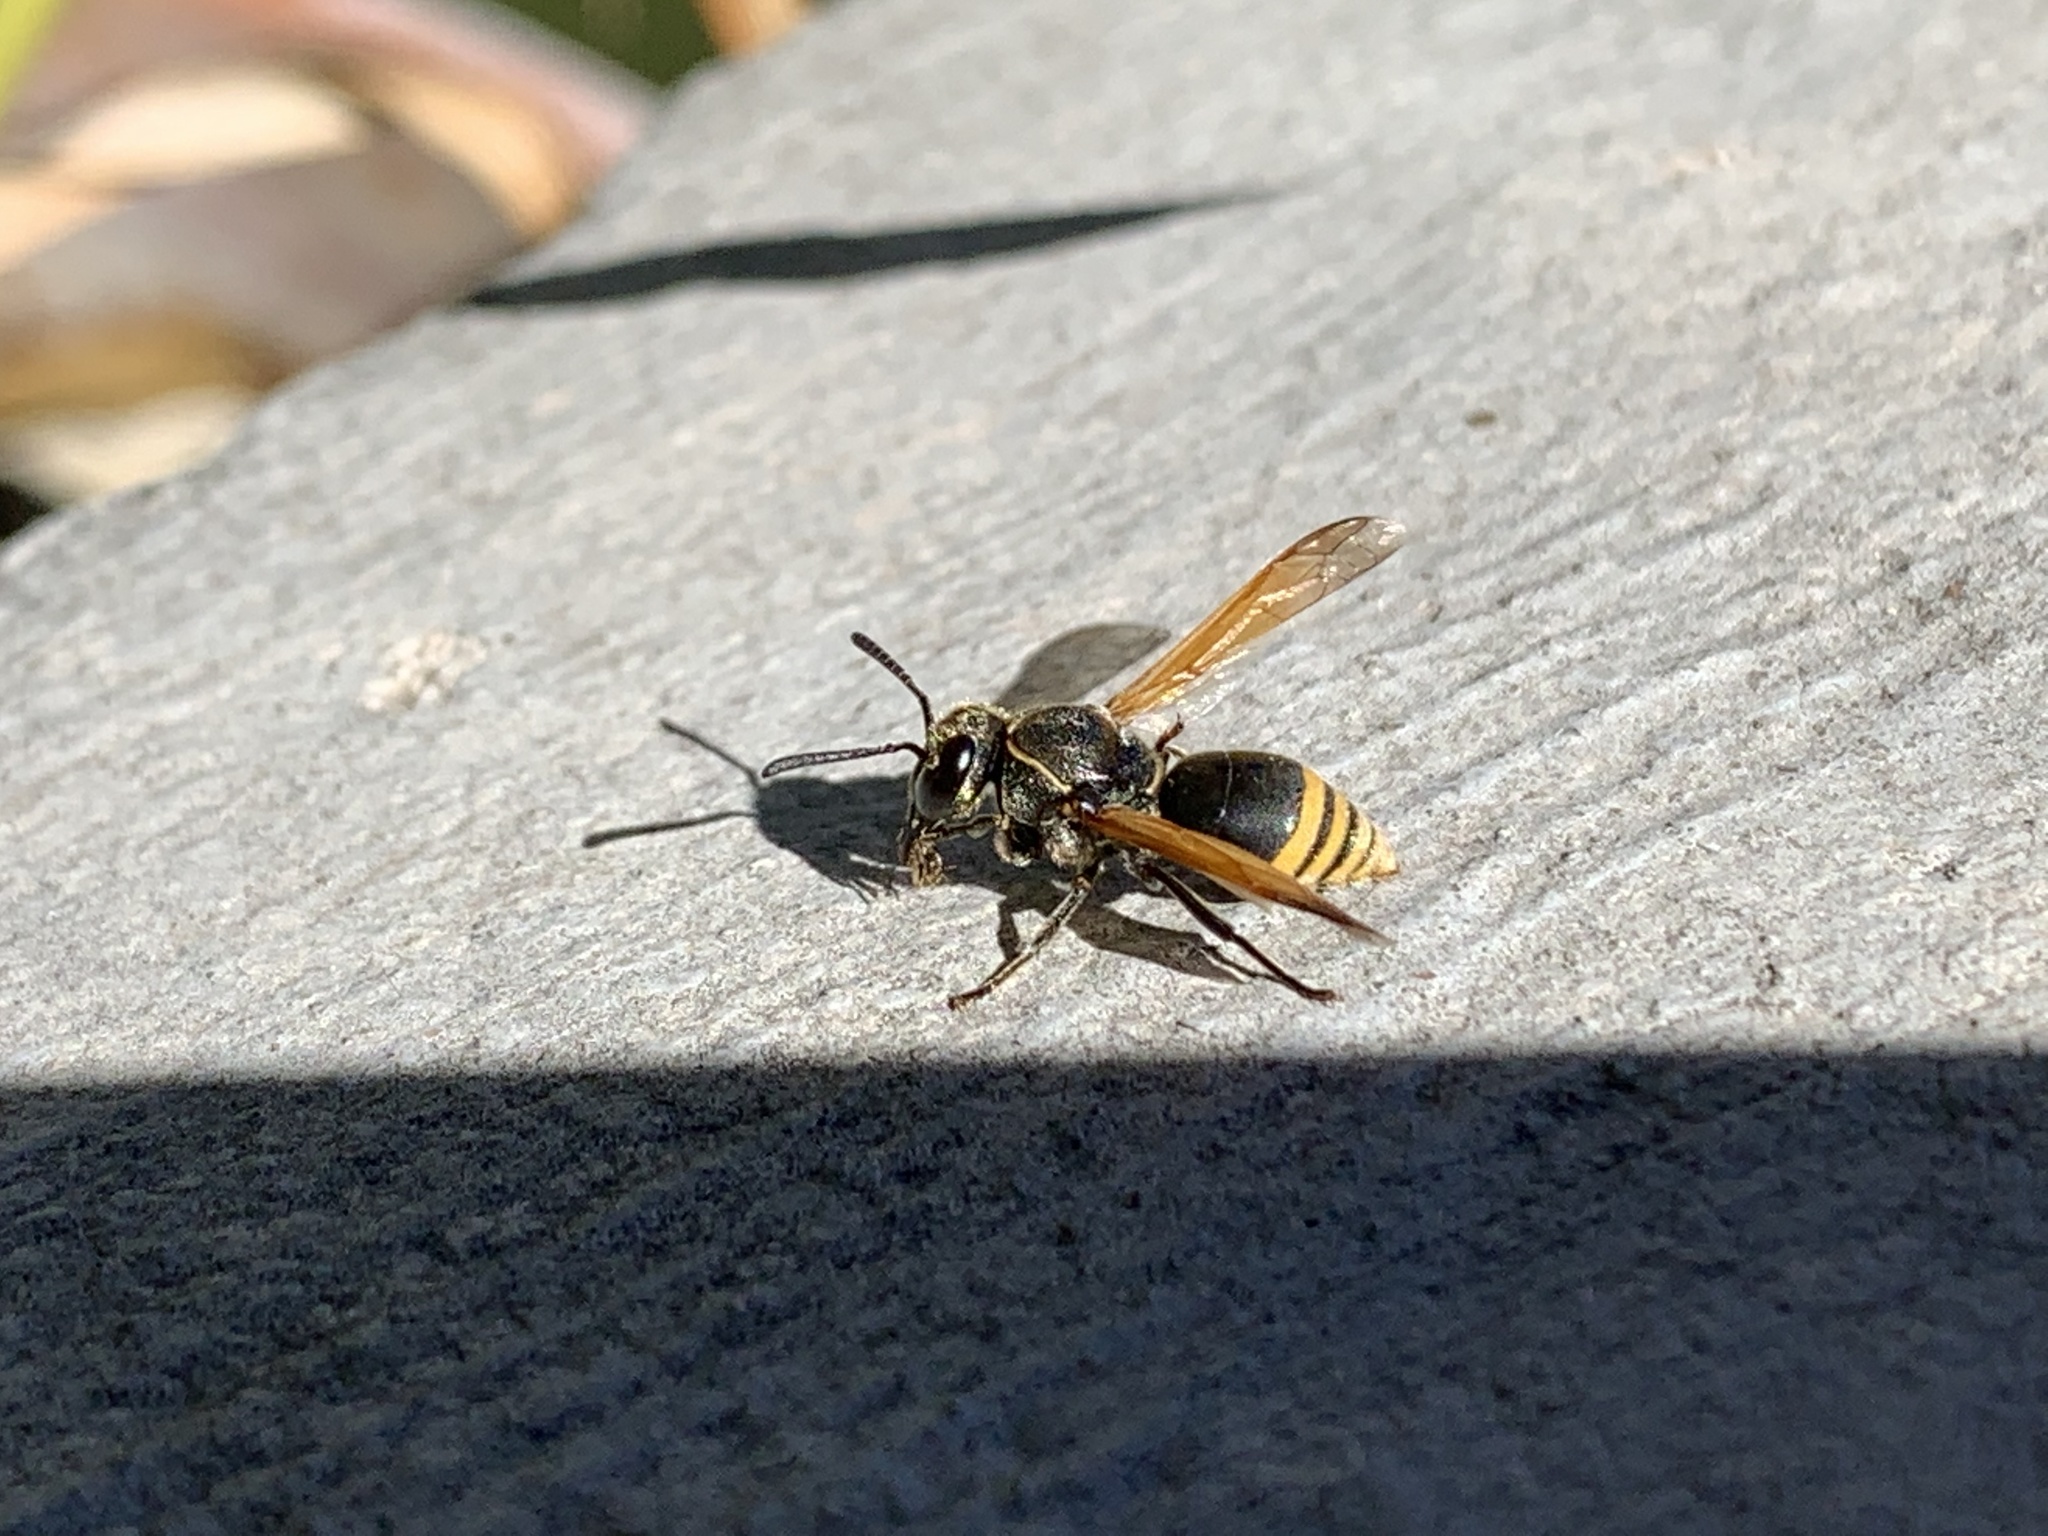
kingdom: Animalia
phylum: Arthropoda
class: Insecta
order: Hymenoptera
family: Eumenidae
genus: Pachodynerus
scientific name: Pachodynerus
